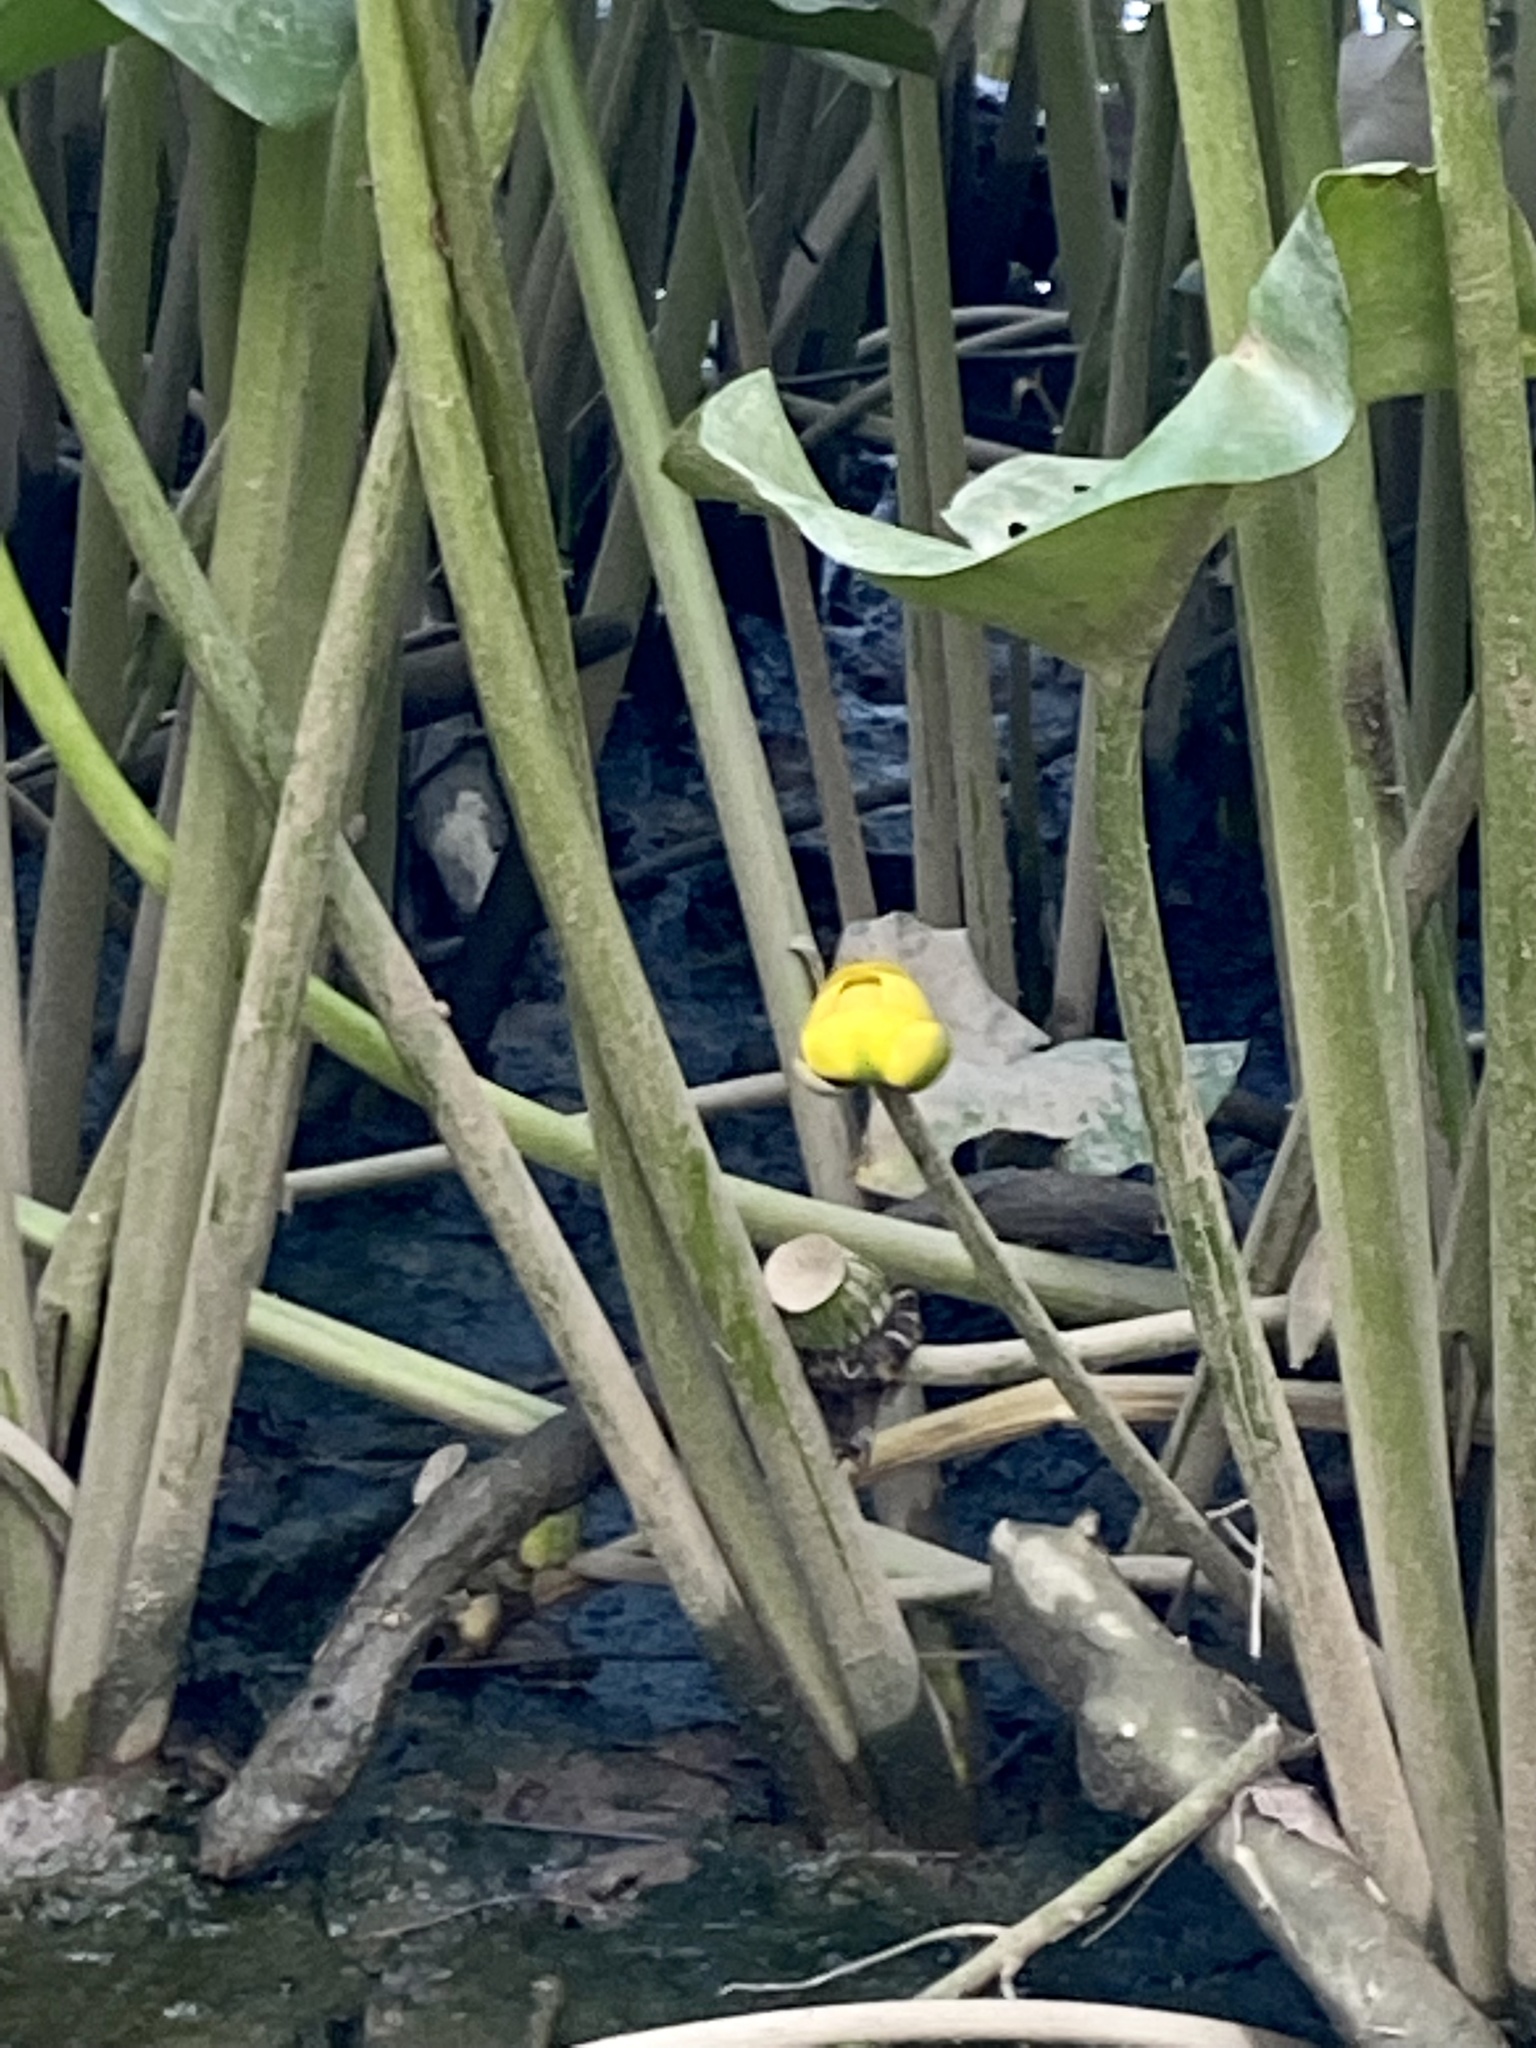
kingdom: Plantae
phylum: Tracheophyta
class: Magnoliopsida
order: Nymphaeales
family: Nymphaeaceae
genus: Nuphar
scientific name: Nuphar advena
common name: Spatter-dock
